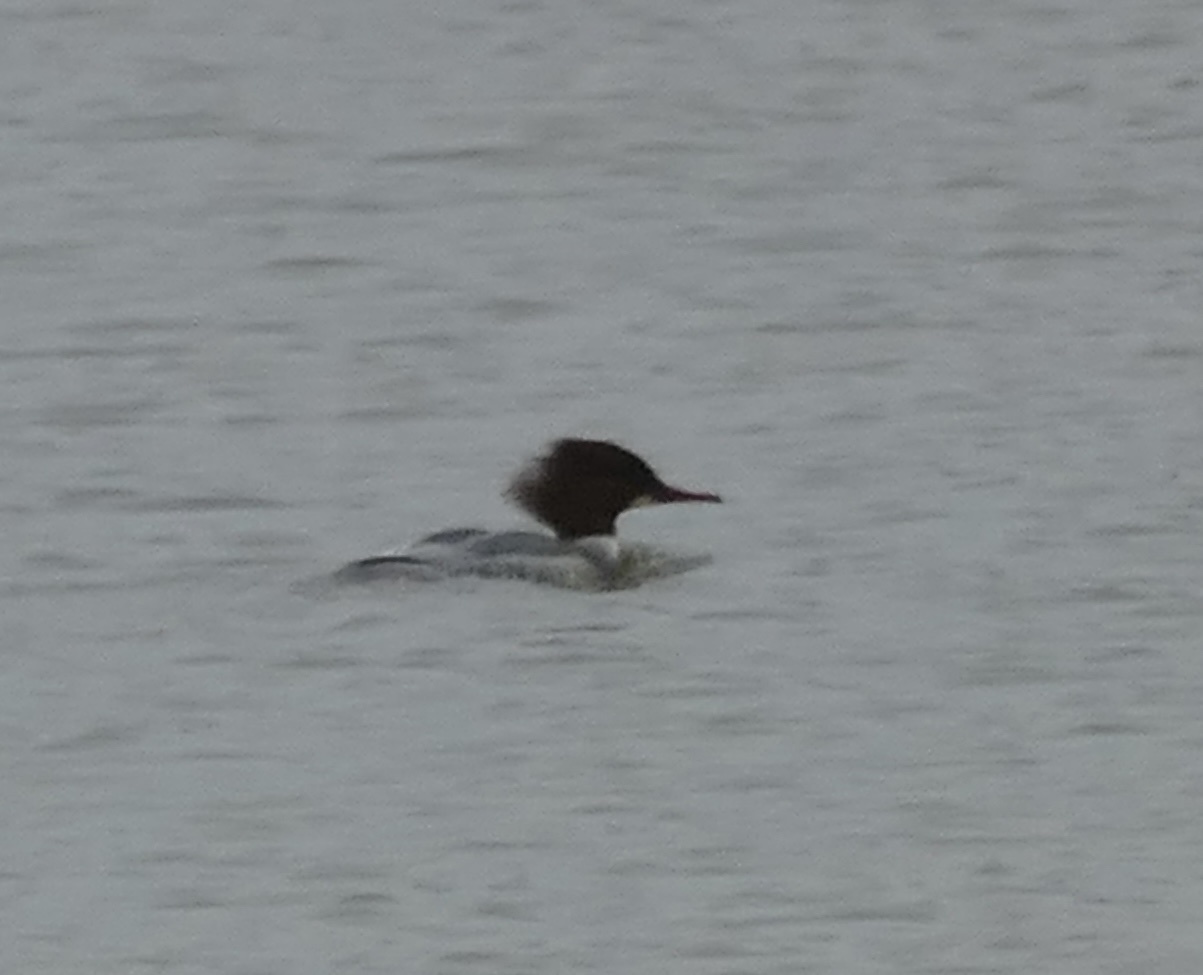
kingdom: Animalia
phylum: Chordata
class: Aves
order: Anseriformes
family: Anatidae
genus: Mergus
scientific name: Mergus merganser
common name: Common merganser
